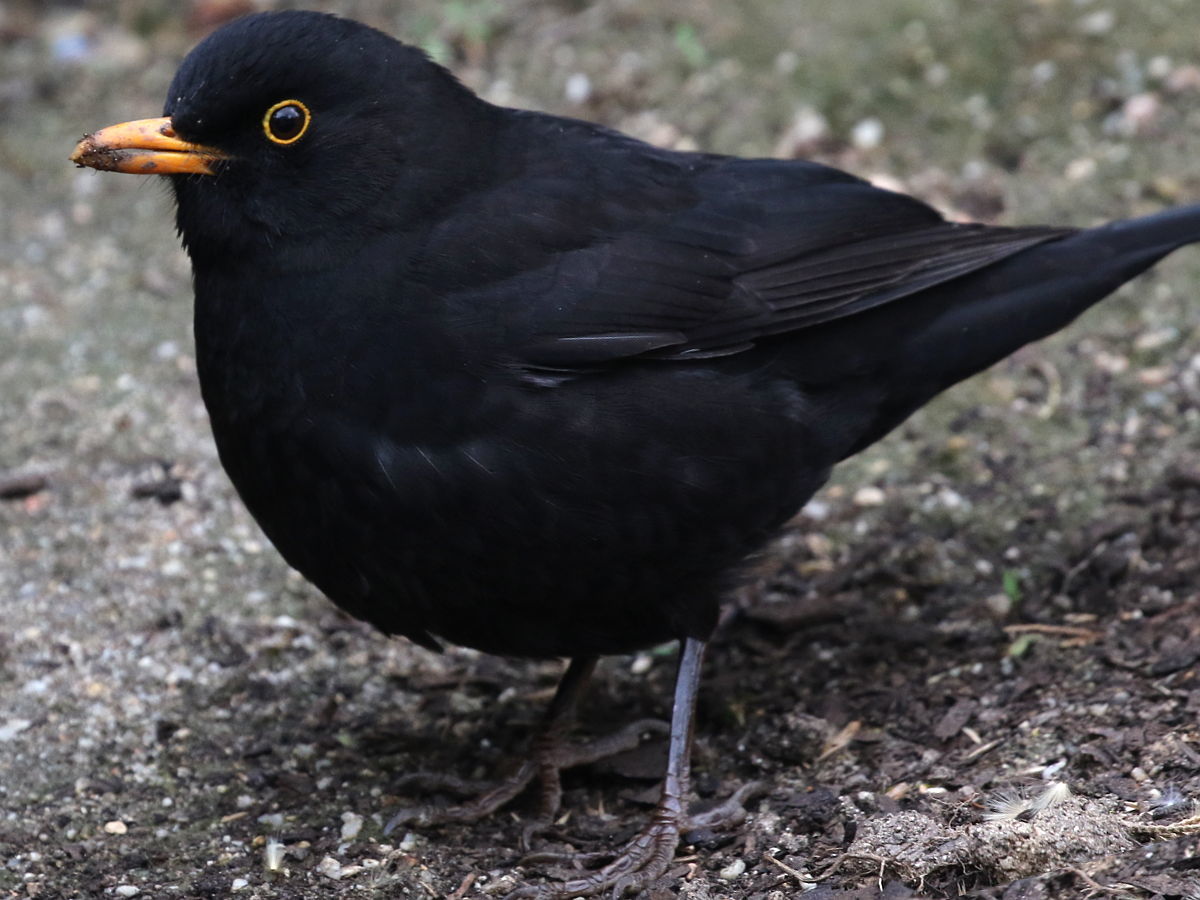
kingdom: Animalia
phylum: Chordata
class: Aves
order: Passeriformes
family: Turdidae
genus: Turdus
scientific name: Turdus merula
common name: Common blackbird
